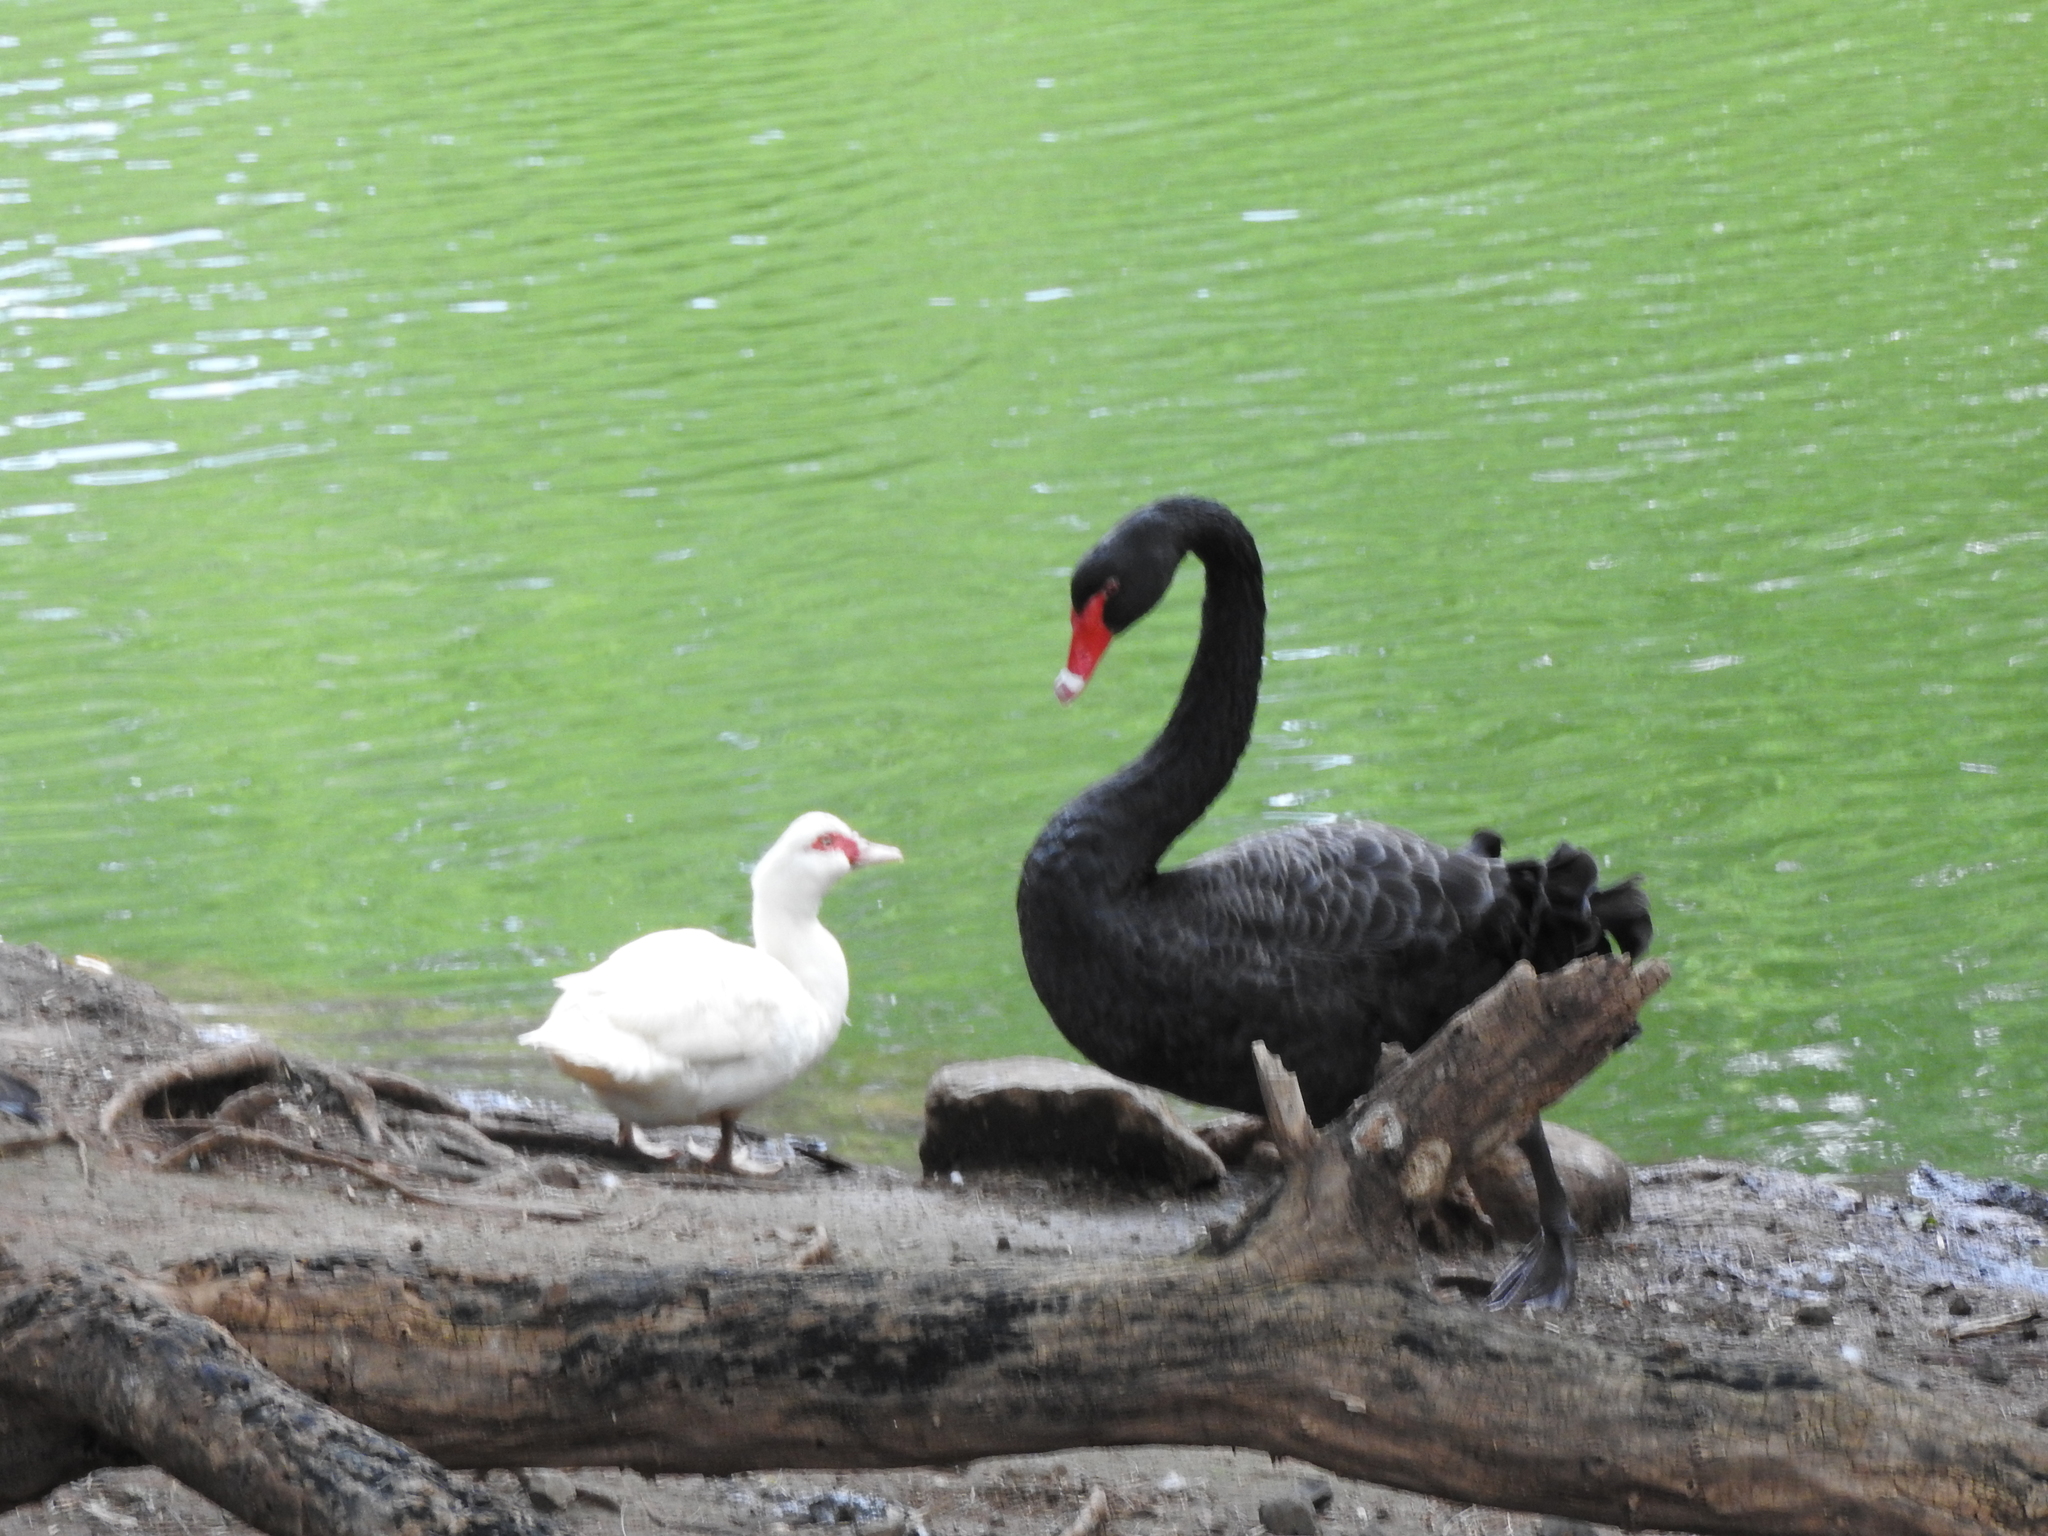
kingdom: Animalia
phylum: Chordata
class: Aves
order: Anseriformes
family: Anatidae
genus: Cairina
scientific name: Cairina moschata
